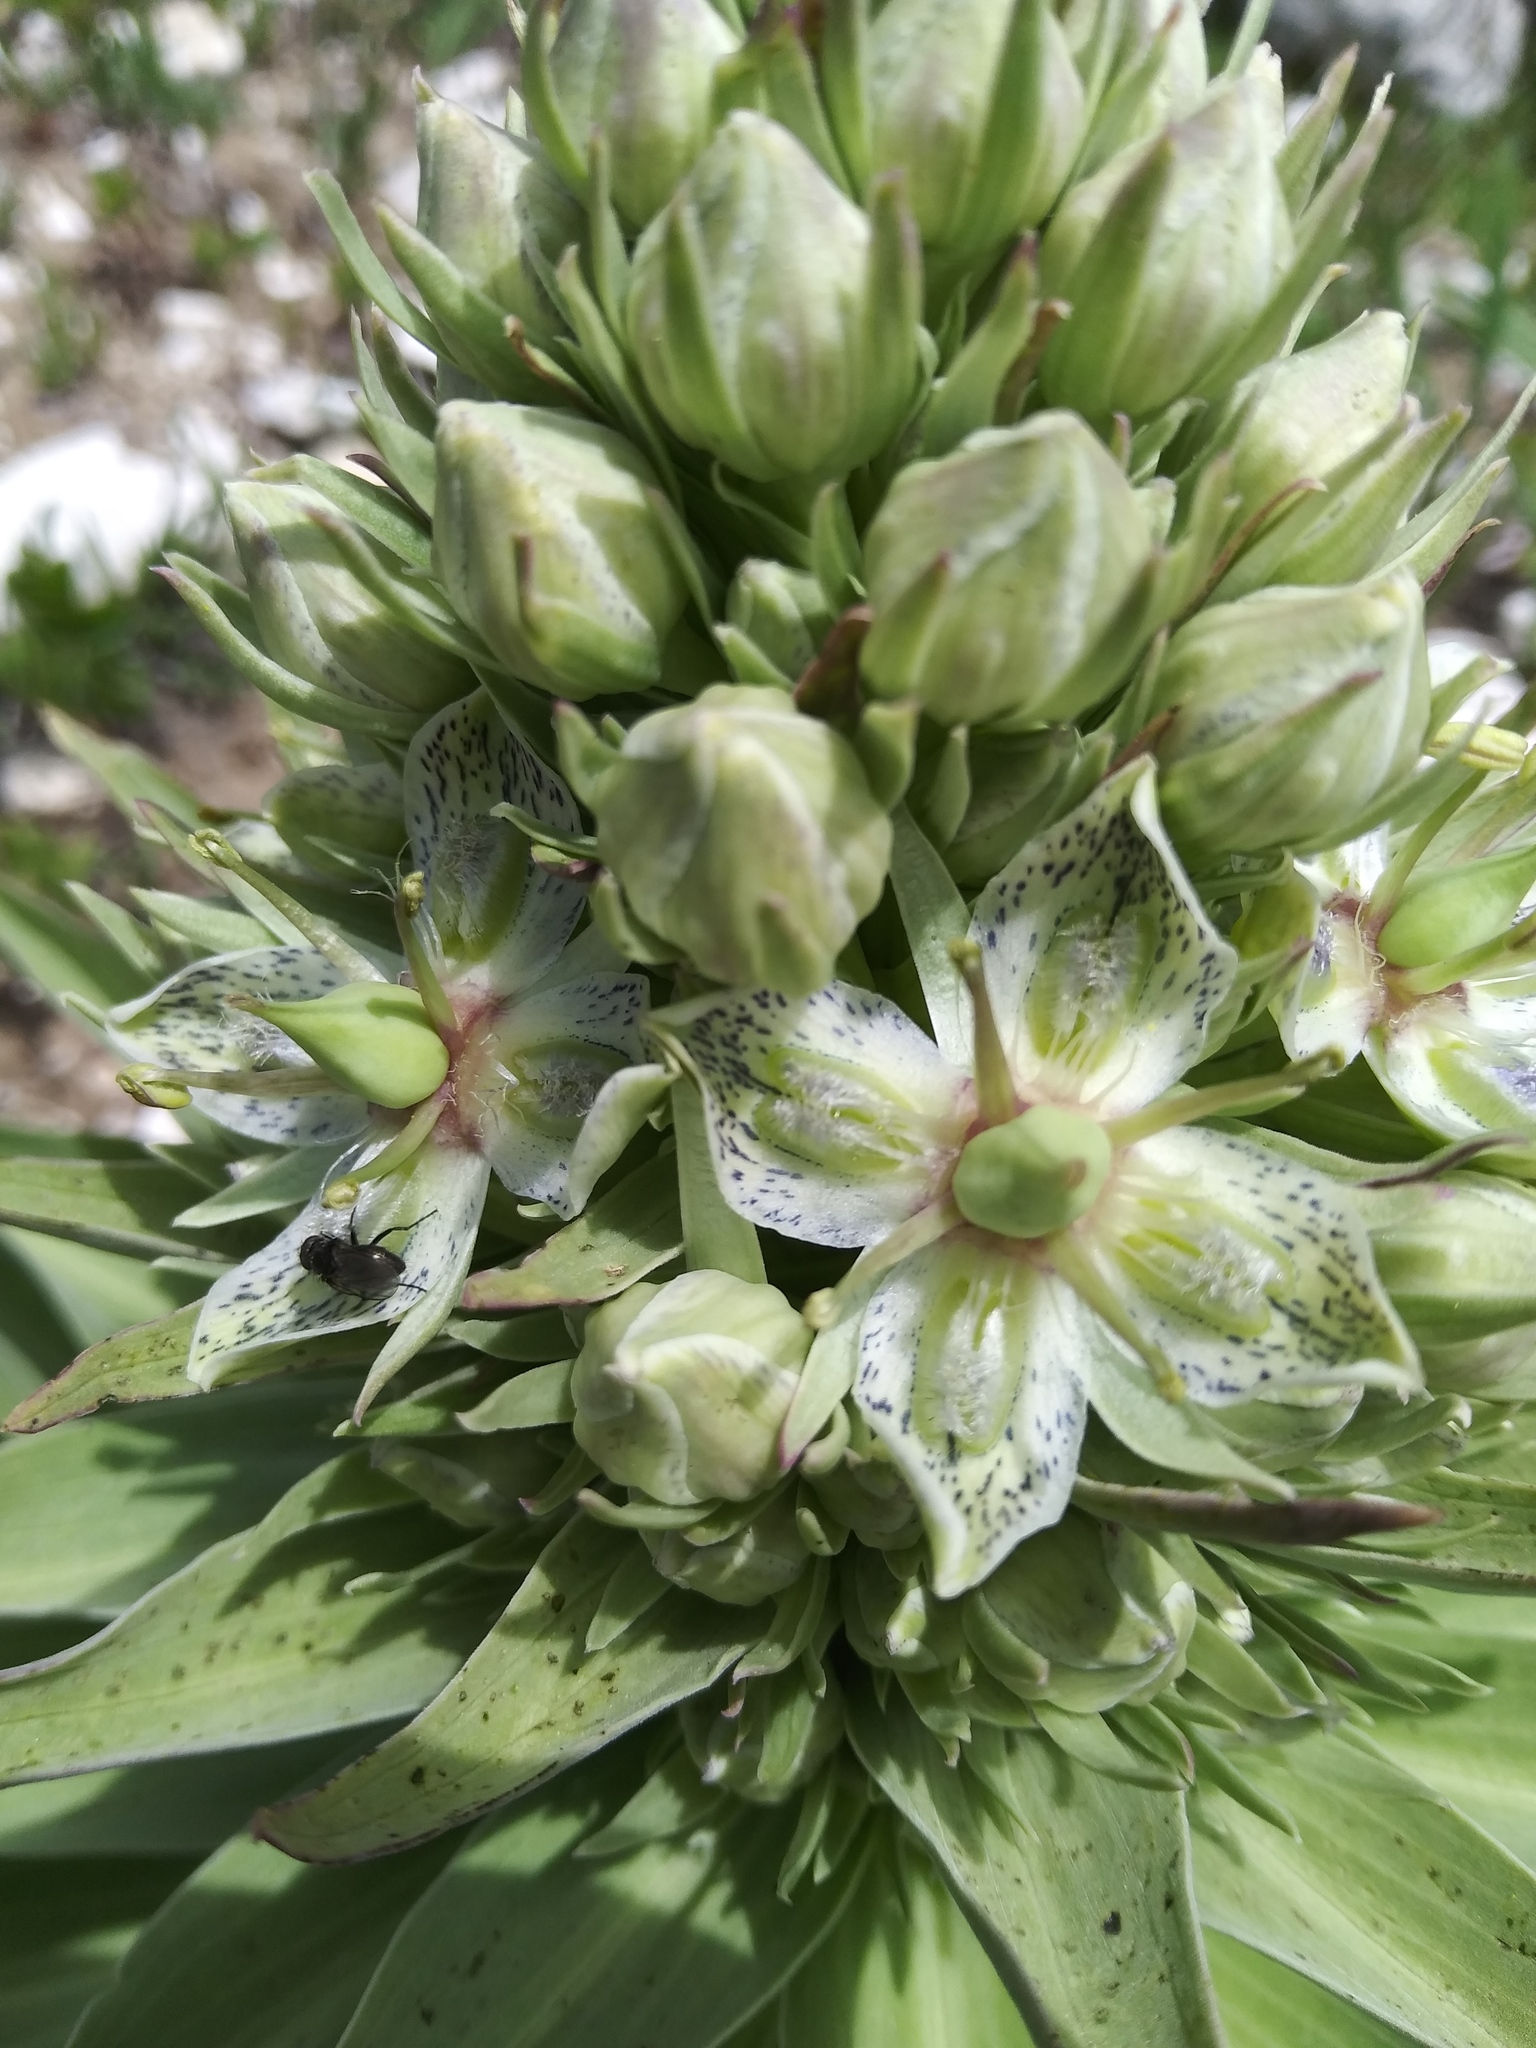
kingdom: Plantae
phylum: Tracheophyta
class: Magnoliopsida
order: Gentianales
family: Gentianaceae
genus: Frasera
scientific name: Frasera speciosa
